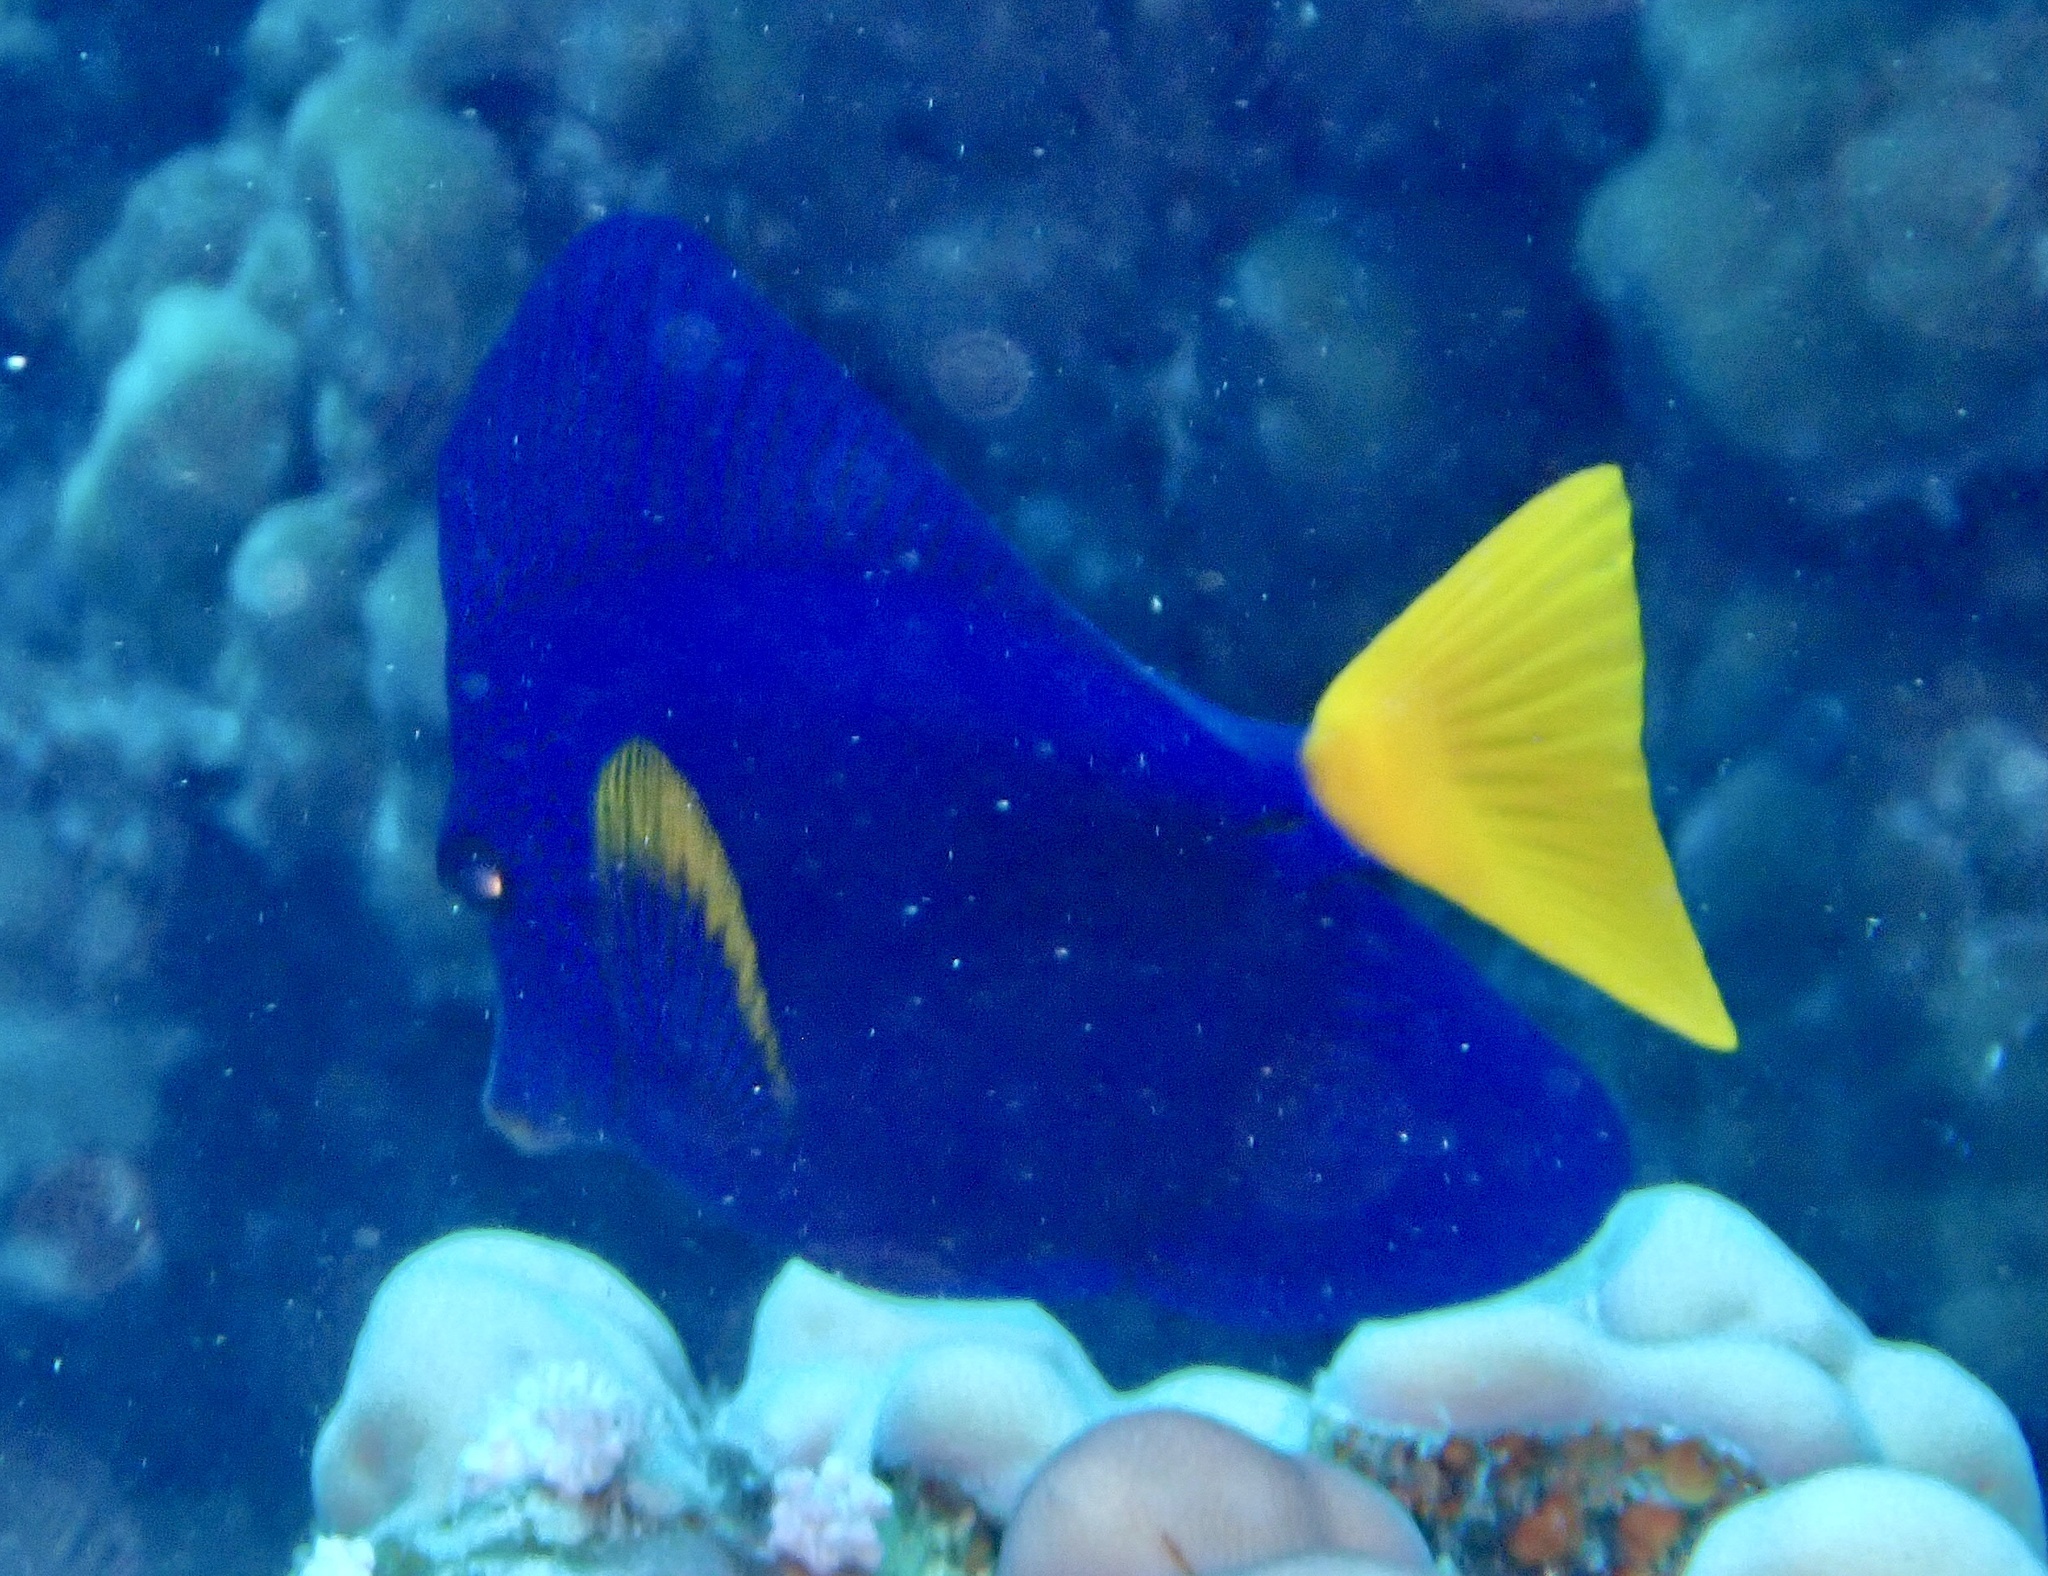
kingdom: Animalia
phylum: Chordata
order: Perciformes
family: Acanthuridae
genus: Zebrasoma
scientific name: Zebrasoma xanthurum
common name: Purple tang
